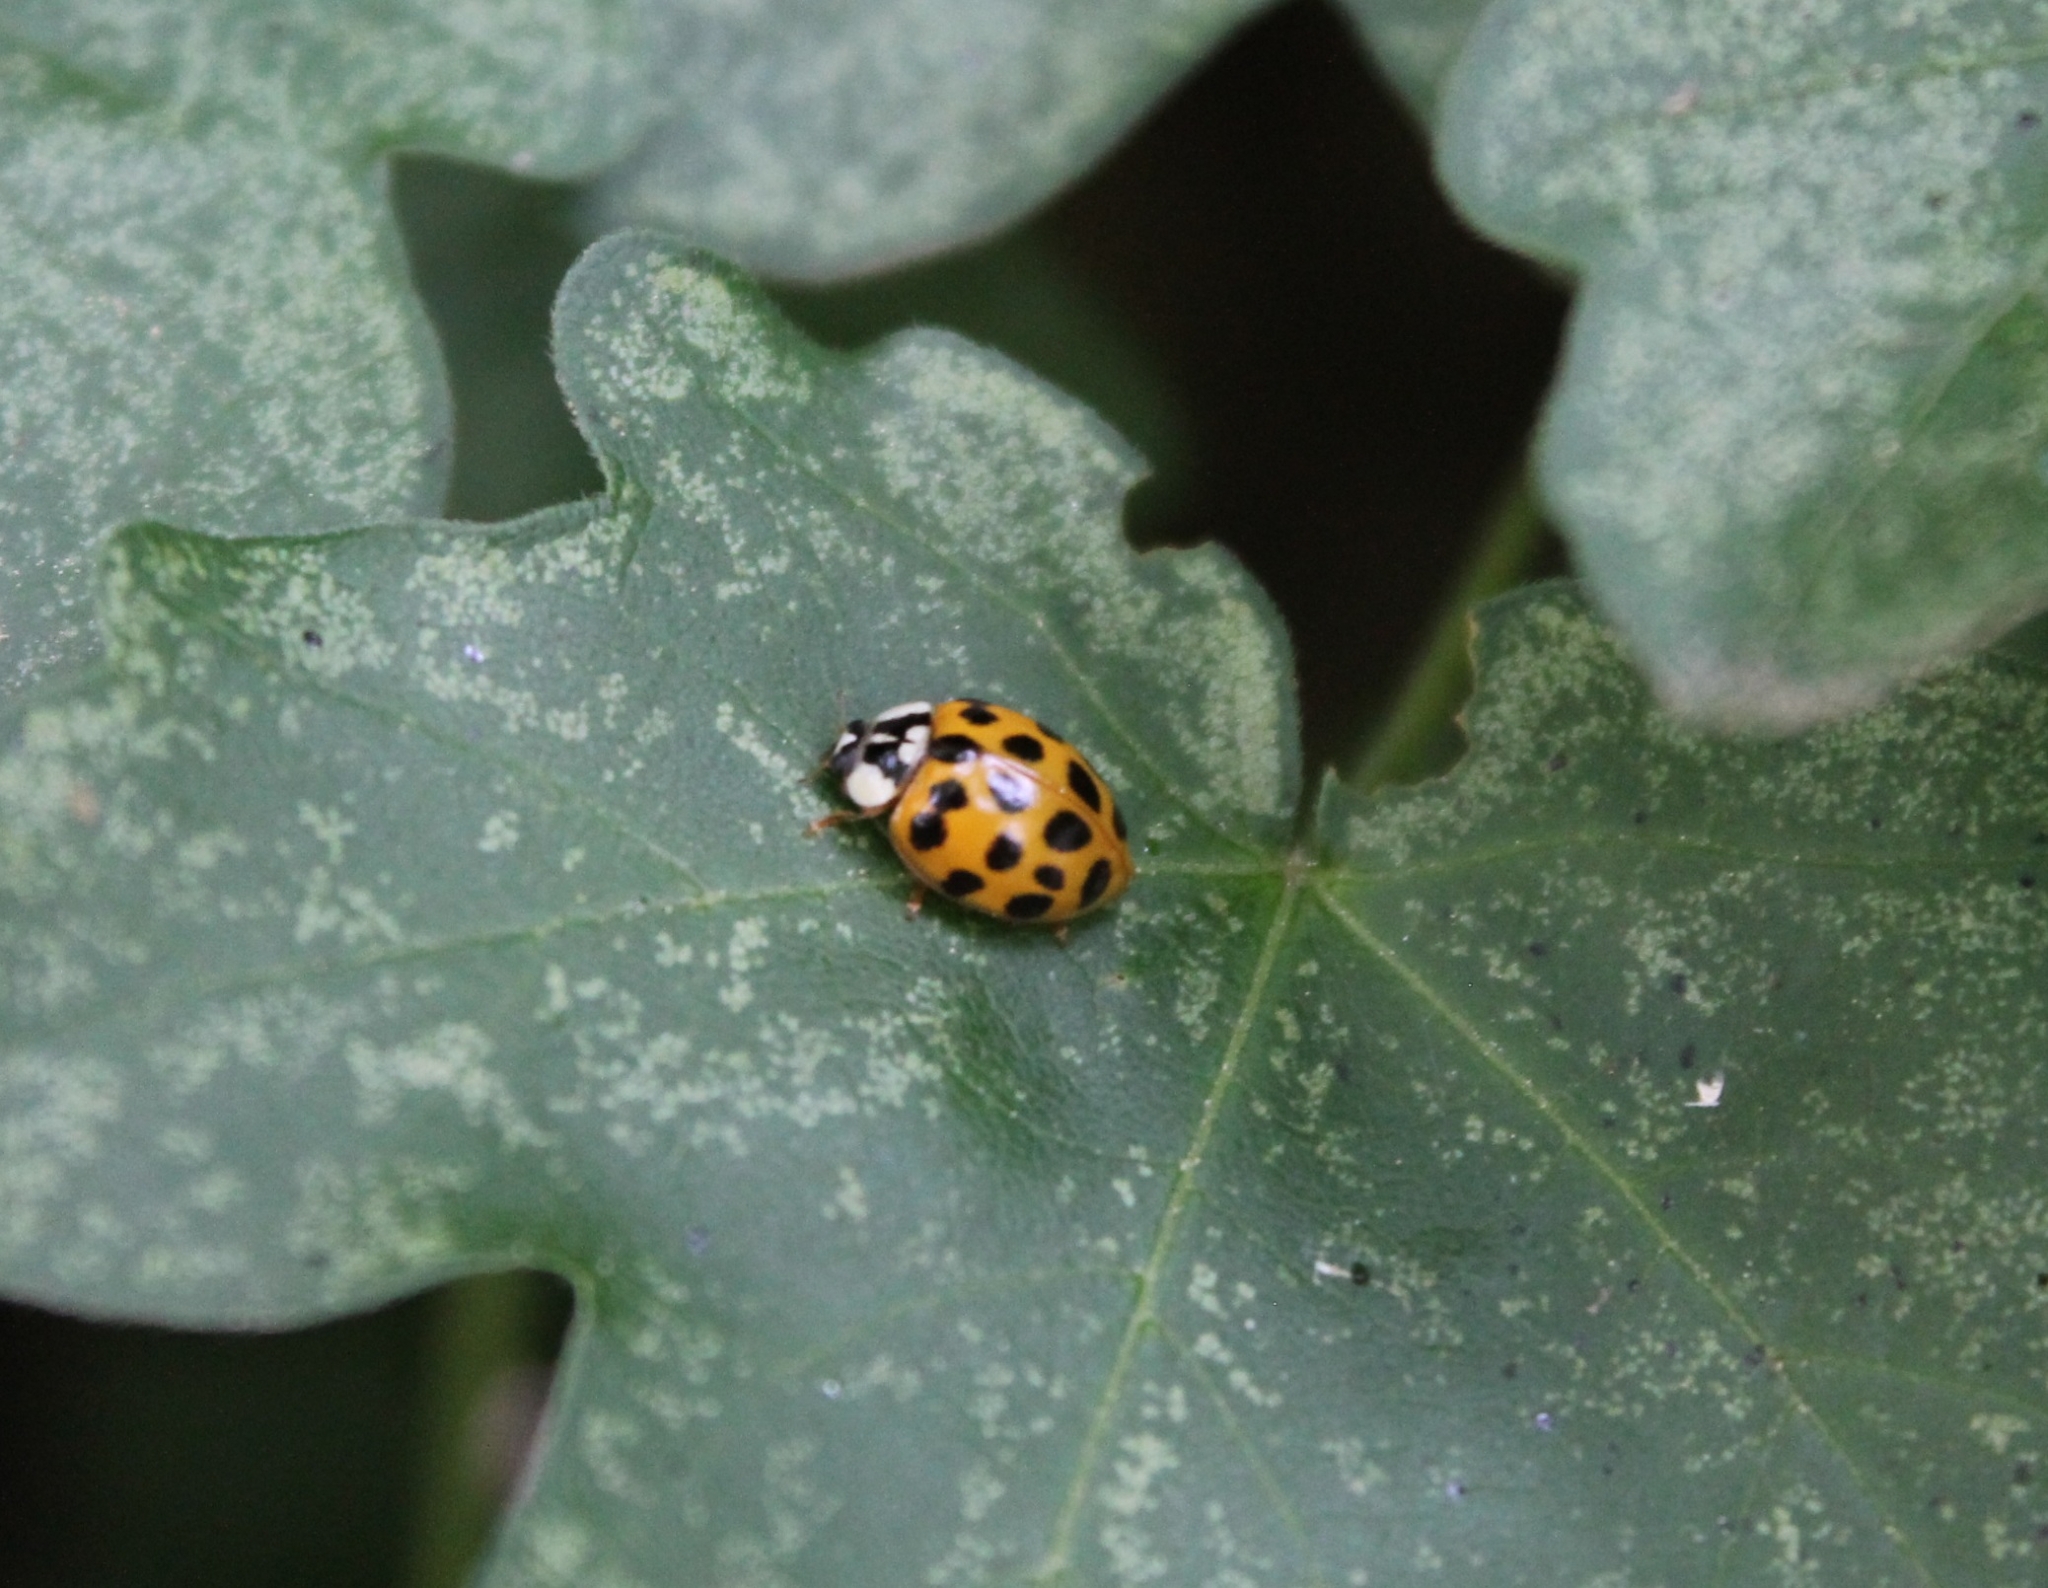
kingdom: Animalia
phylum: Arthropoda
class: Insecta
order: Coleoptera
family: Coccinellidae
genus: Harmonia
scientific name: Harmonia axyridis
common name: Harlequin ladybird
